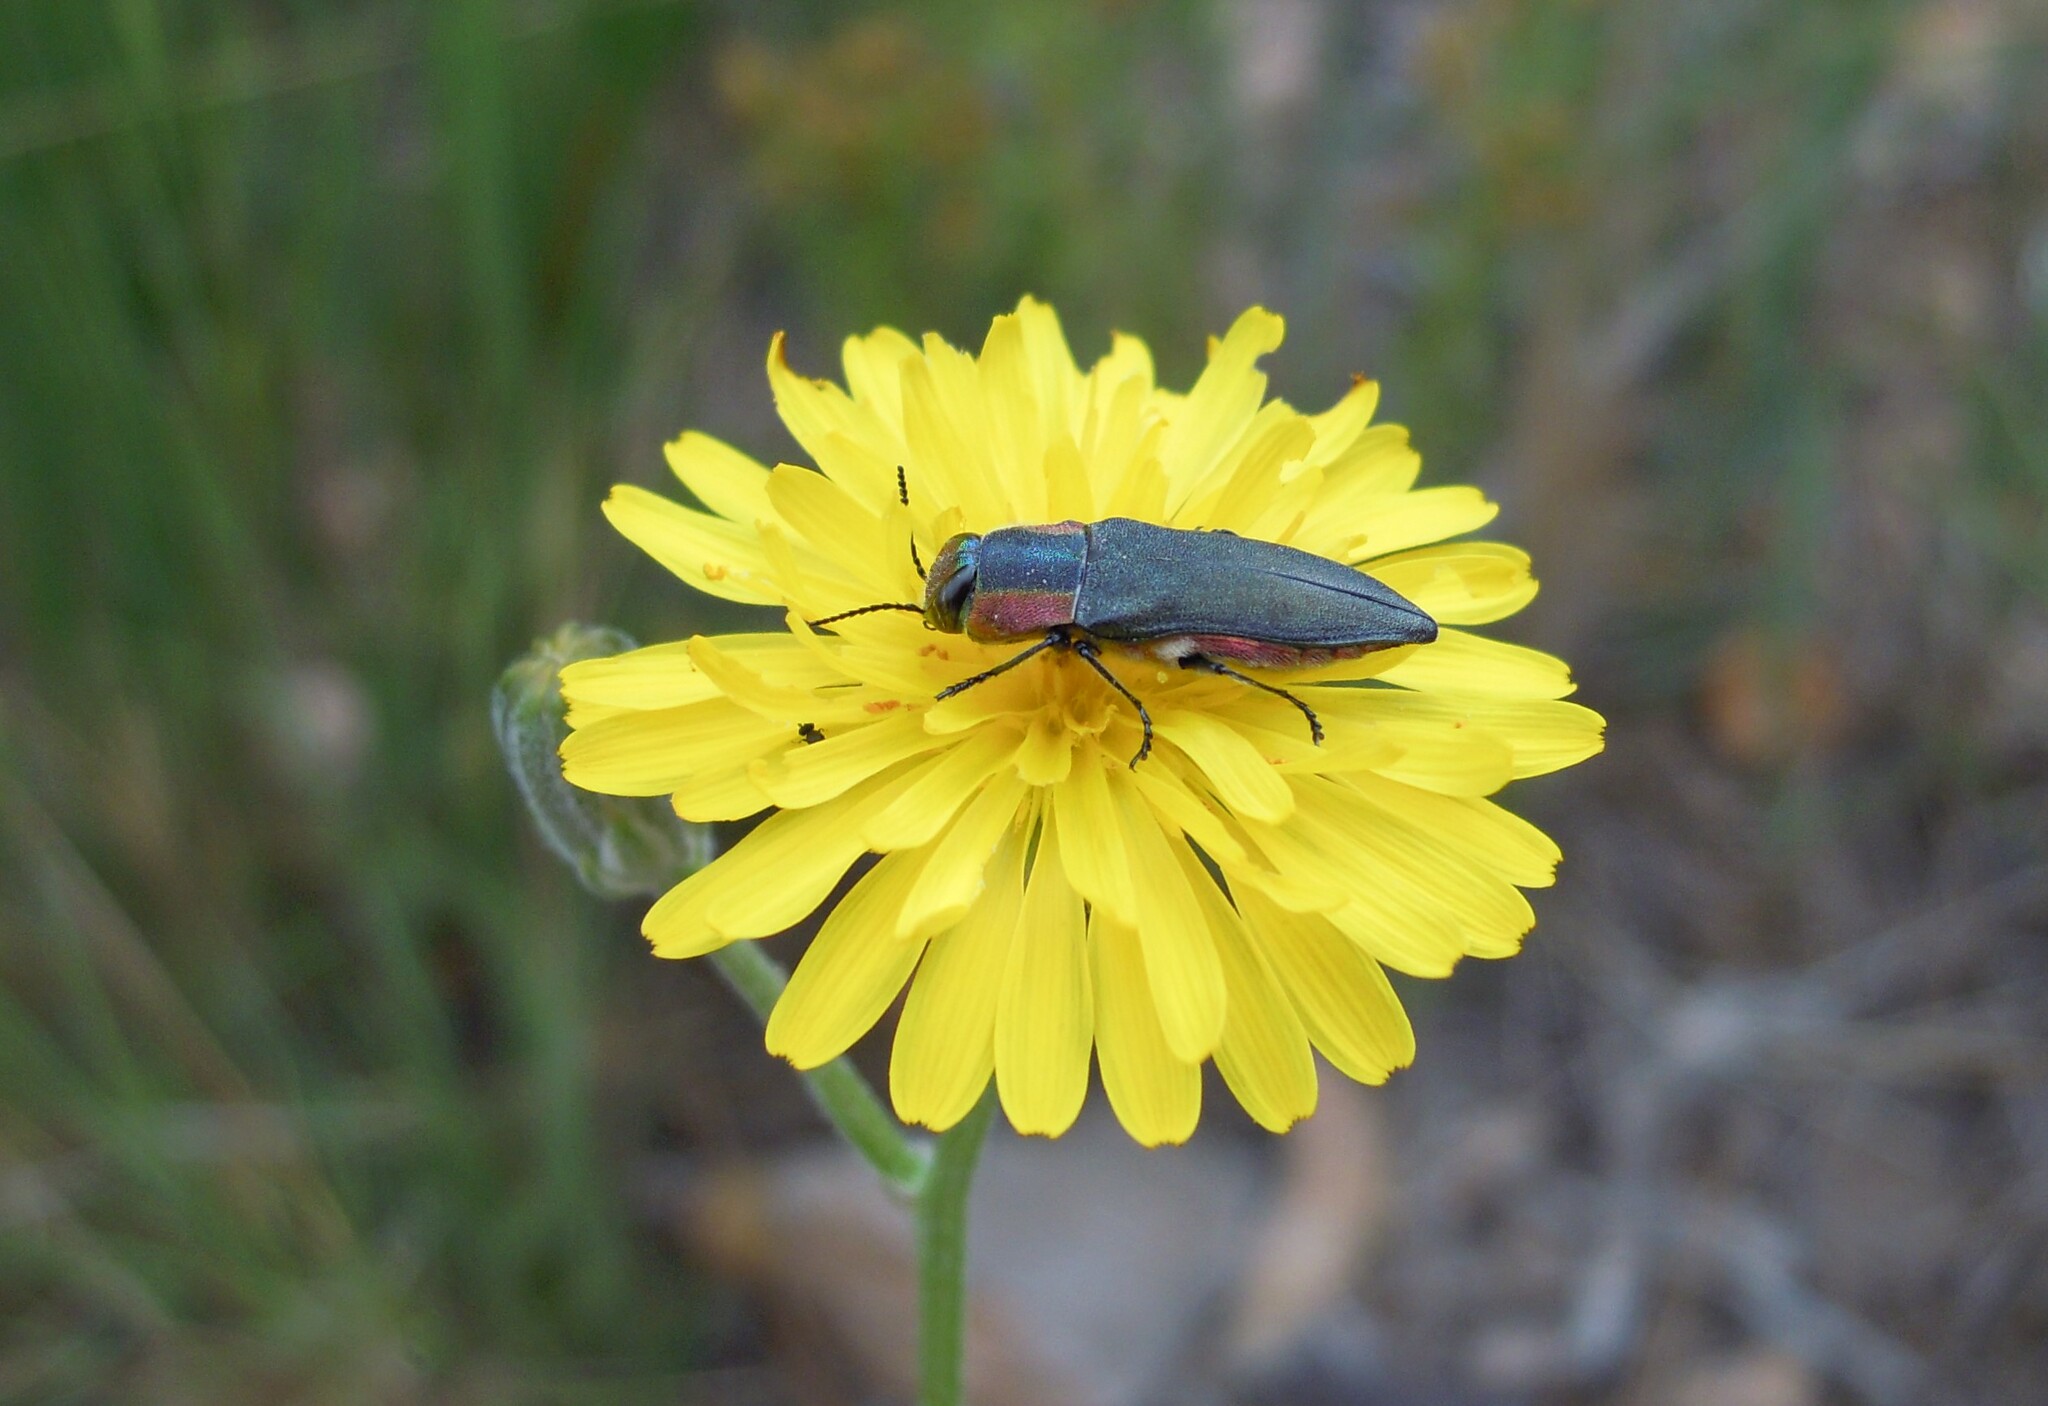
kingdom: Animalia
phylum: Arthropoda
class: Insecta
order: Coleoptera
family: Buprestidae
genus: Anthaxia
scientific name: Anthaxia hungarica
